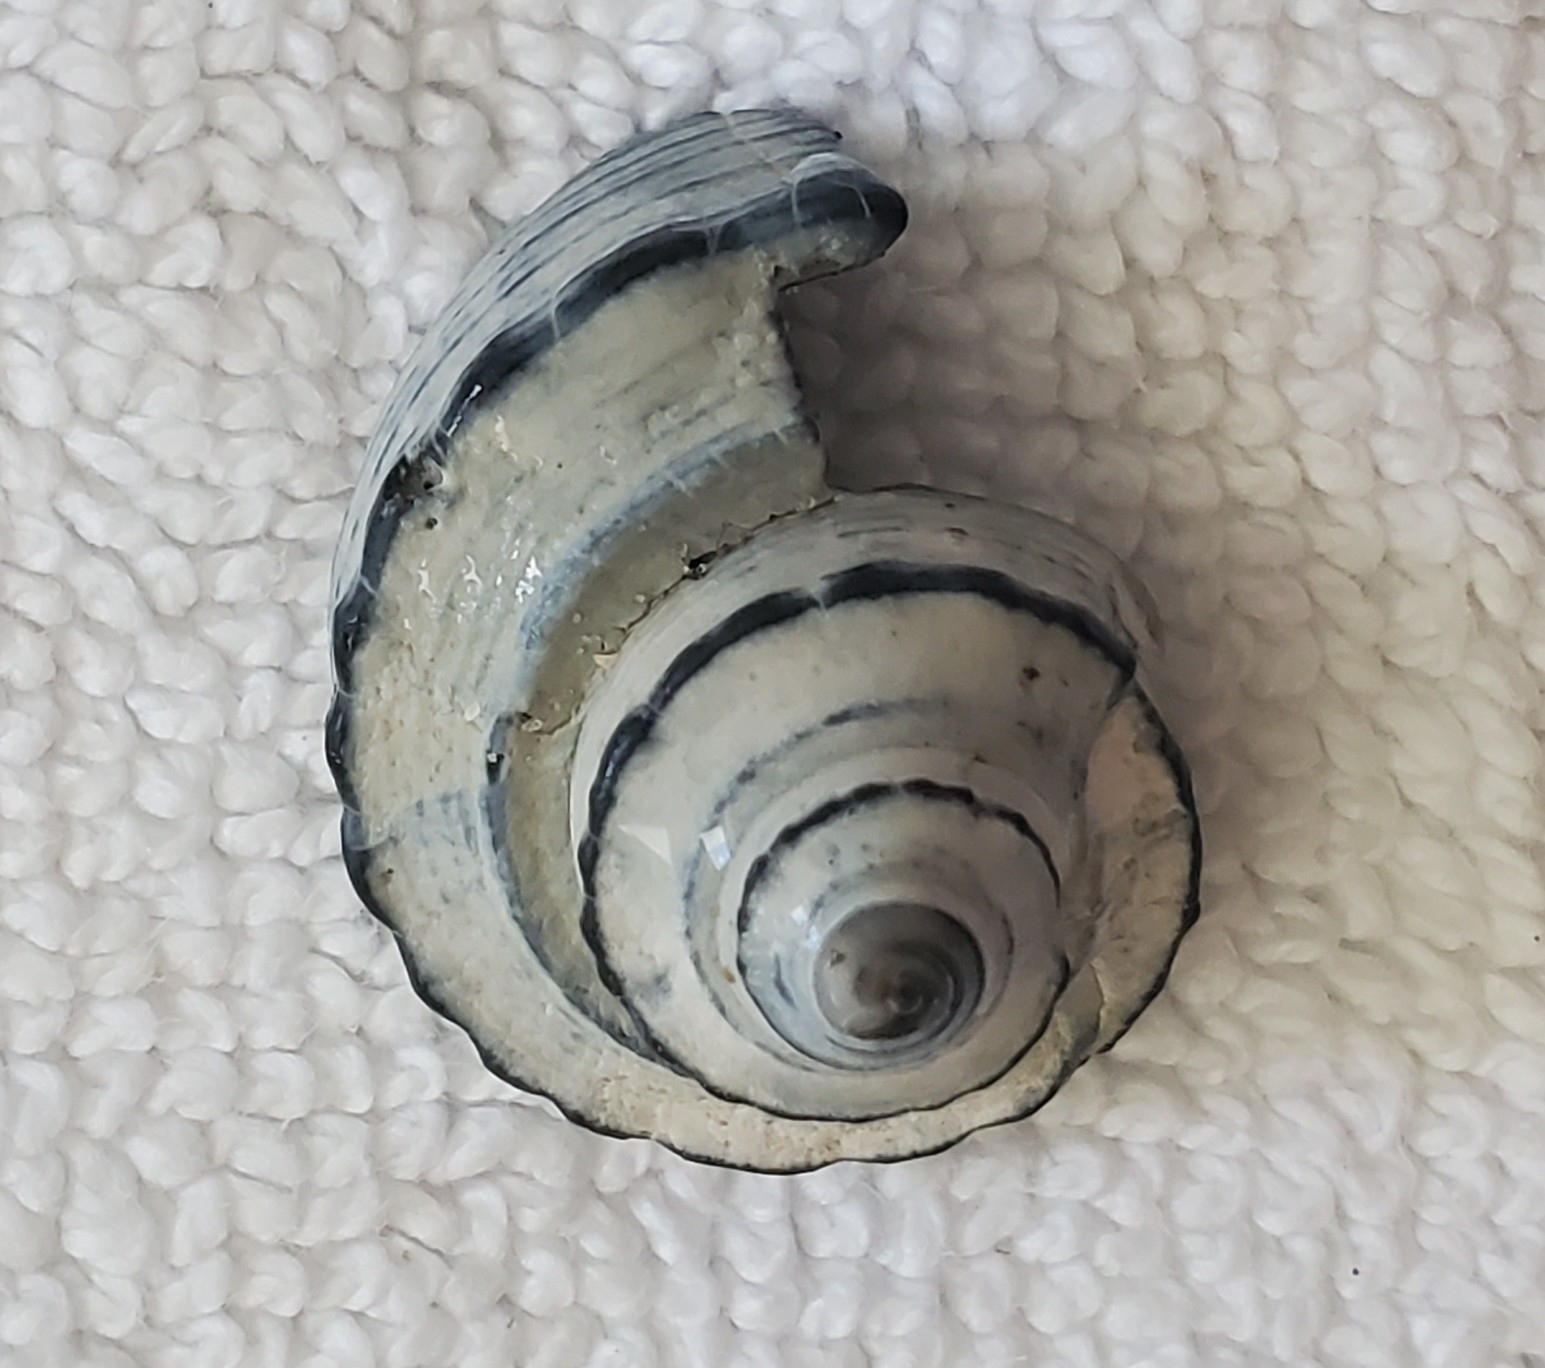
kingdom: Animalia
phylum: Mollusca
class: Gastropoda
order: Neogastropoda
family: Busyconidae
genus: Busycotypus
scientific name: Busycotypus canaliculatus
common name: Channeled whelk
